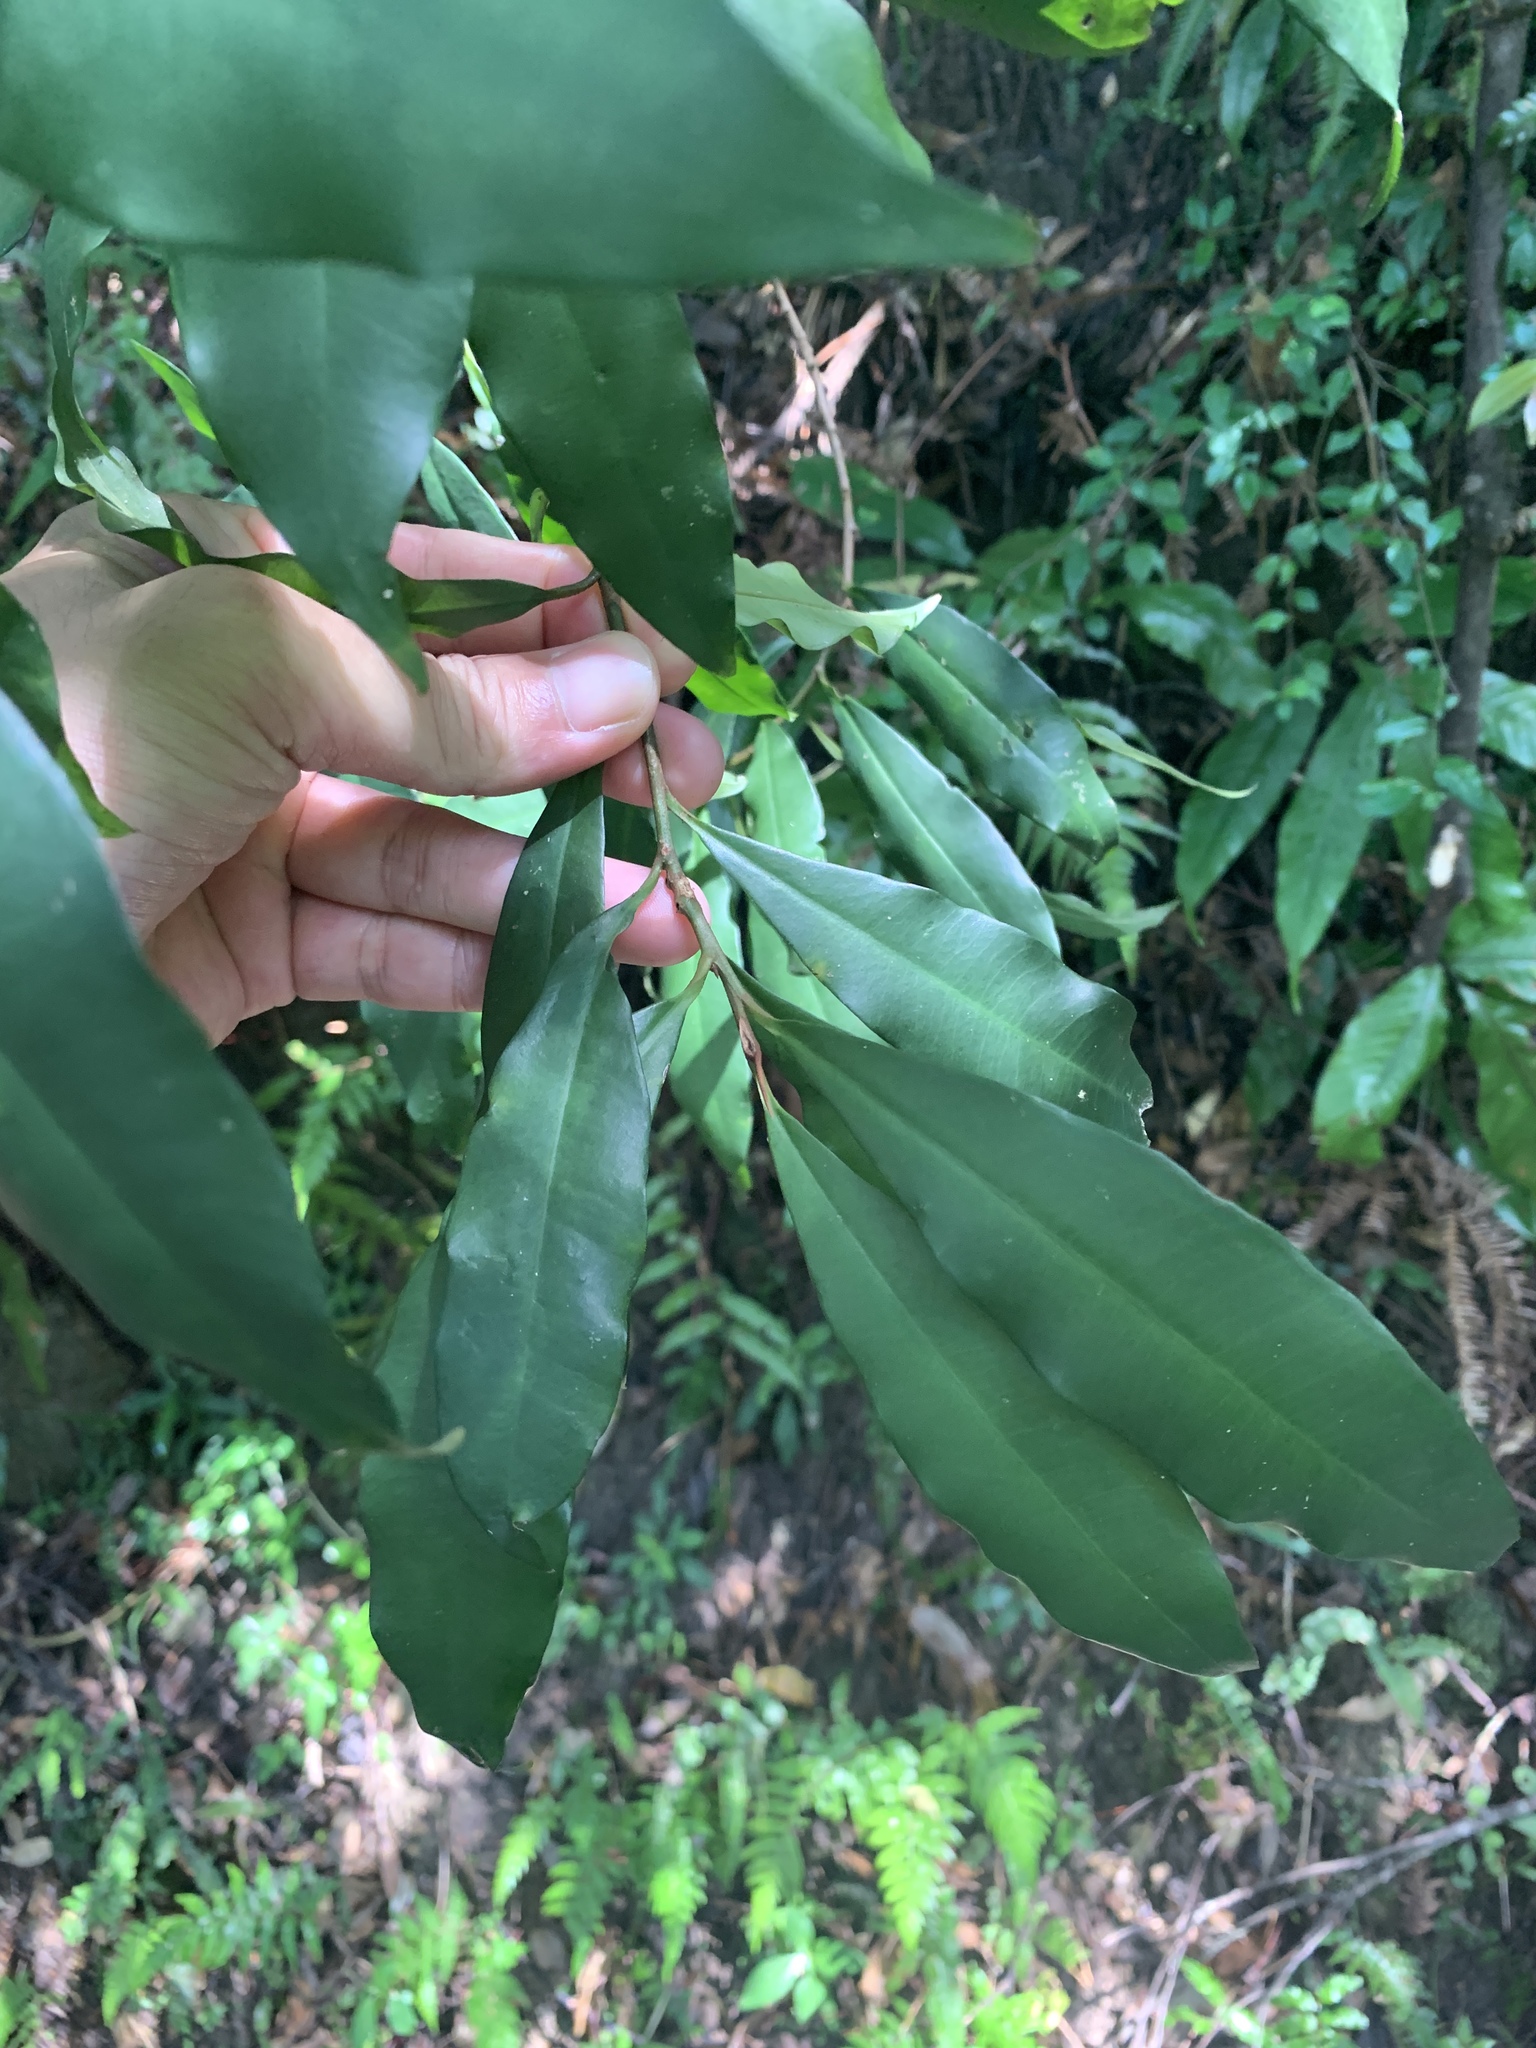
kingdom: Plantae
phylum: Tracheophyta
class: Magnoliopsida
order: Ericales
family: Primulaceae
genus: Ardisia
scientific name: Ardisia quinquegona
